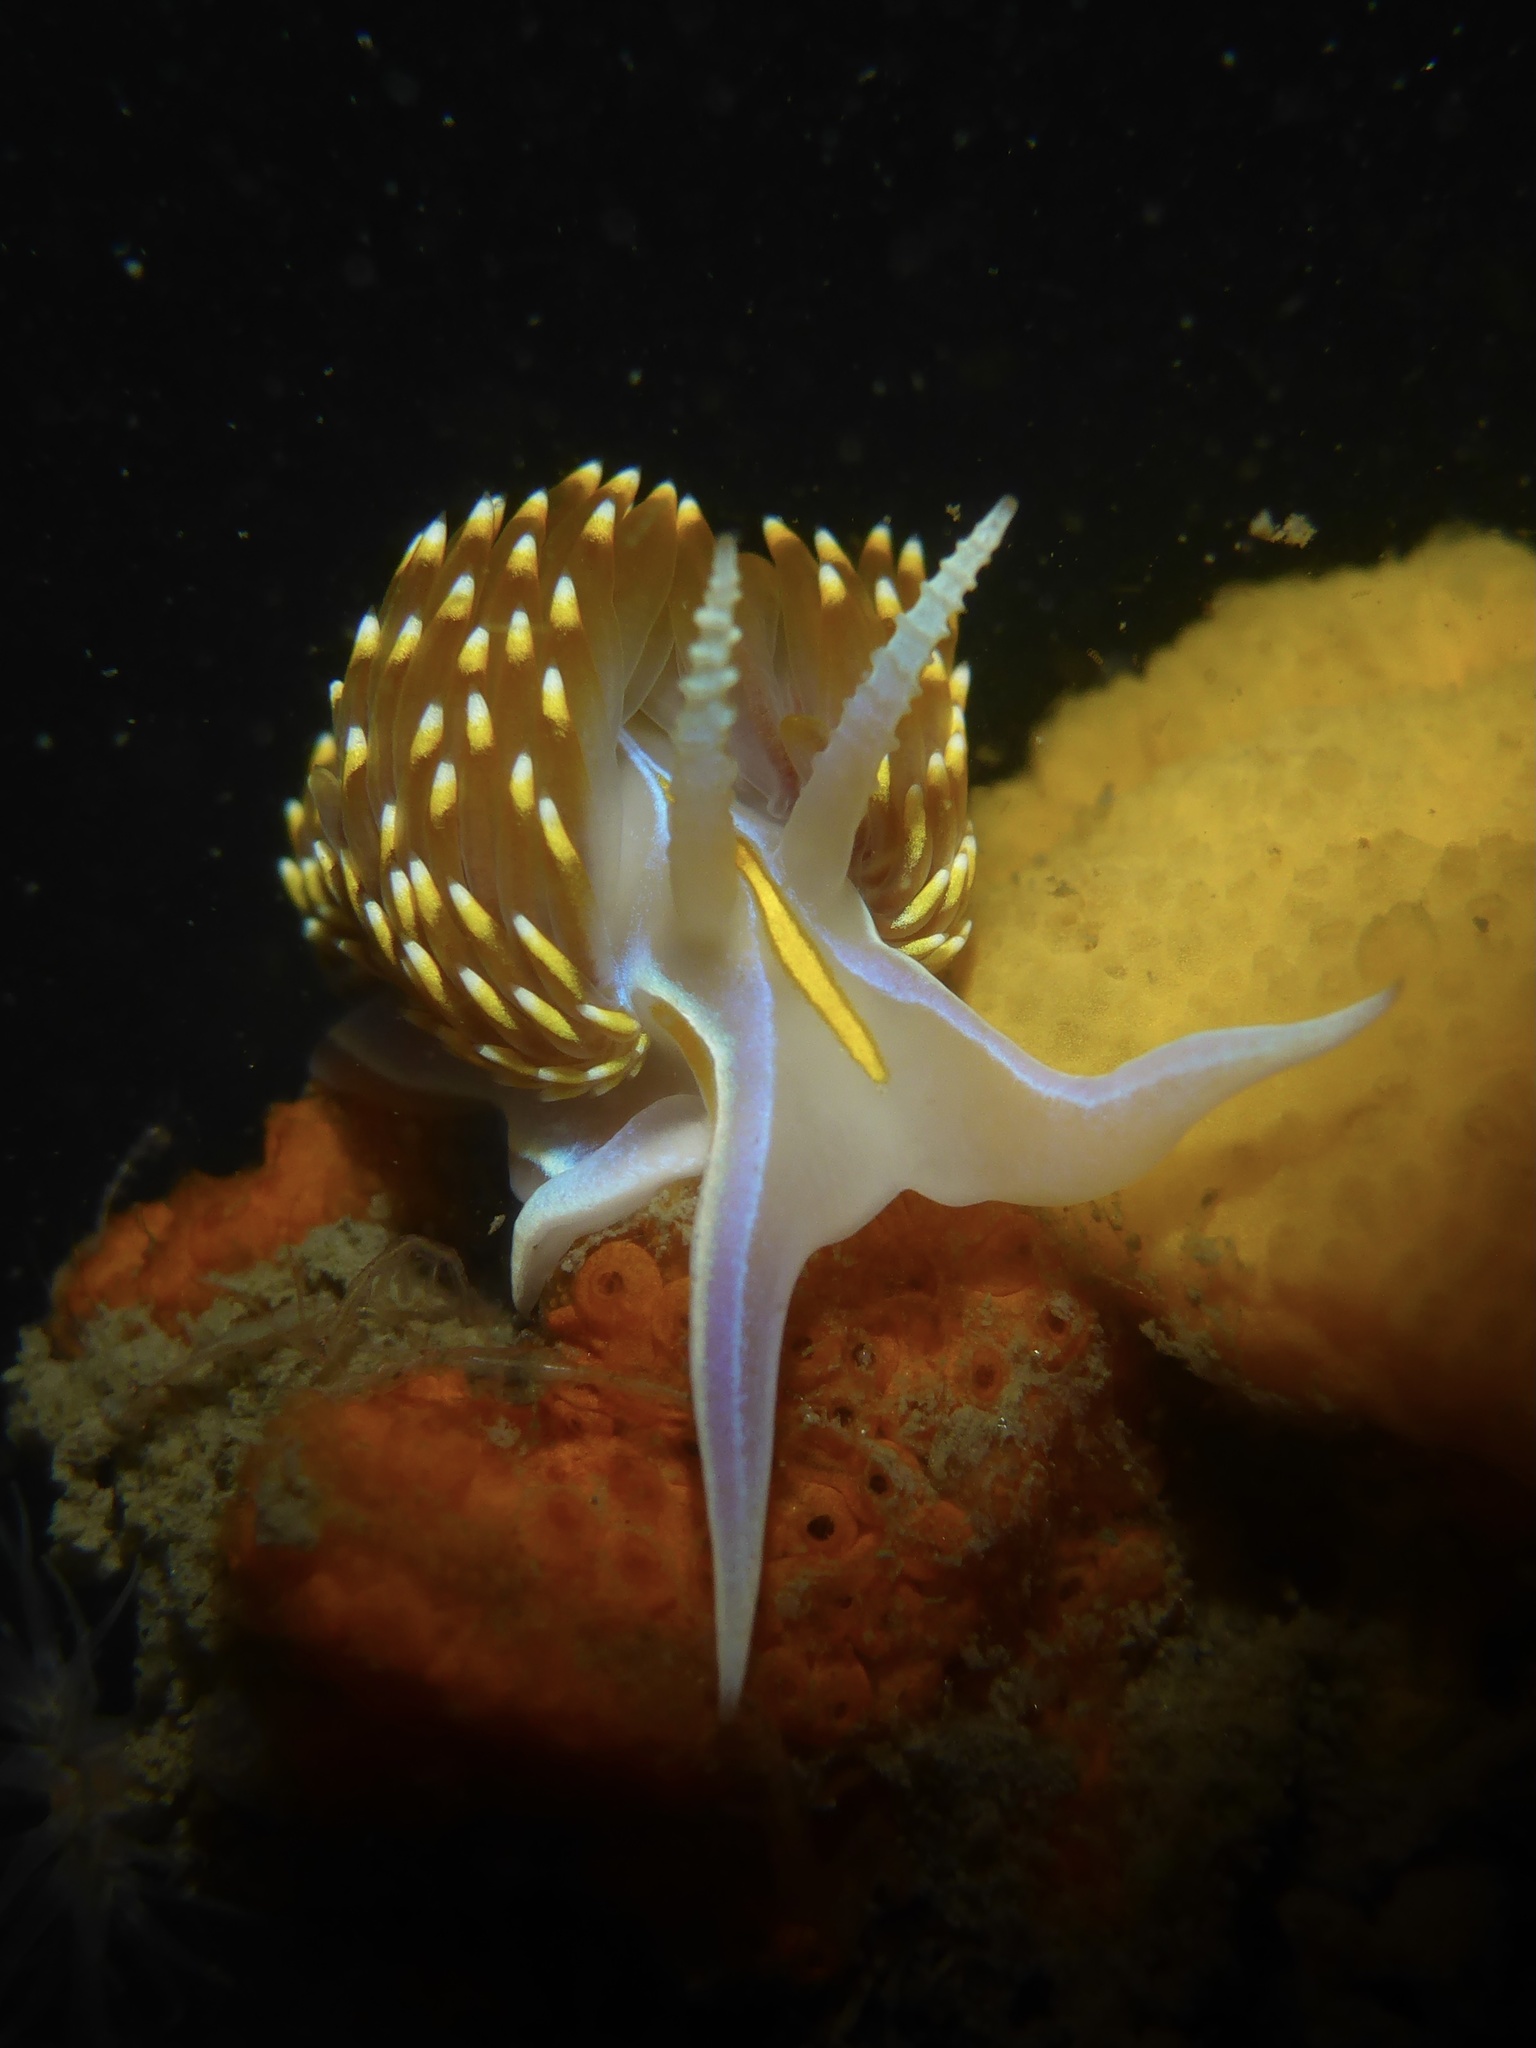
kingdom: Animalia
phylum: Mollusca
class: Gastropoda
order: Nudibranchia
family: Myrrhinidae
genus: Hermissenda
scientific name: Hermissenda opalescens
